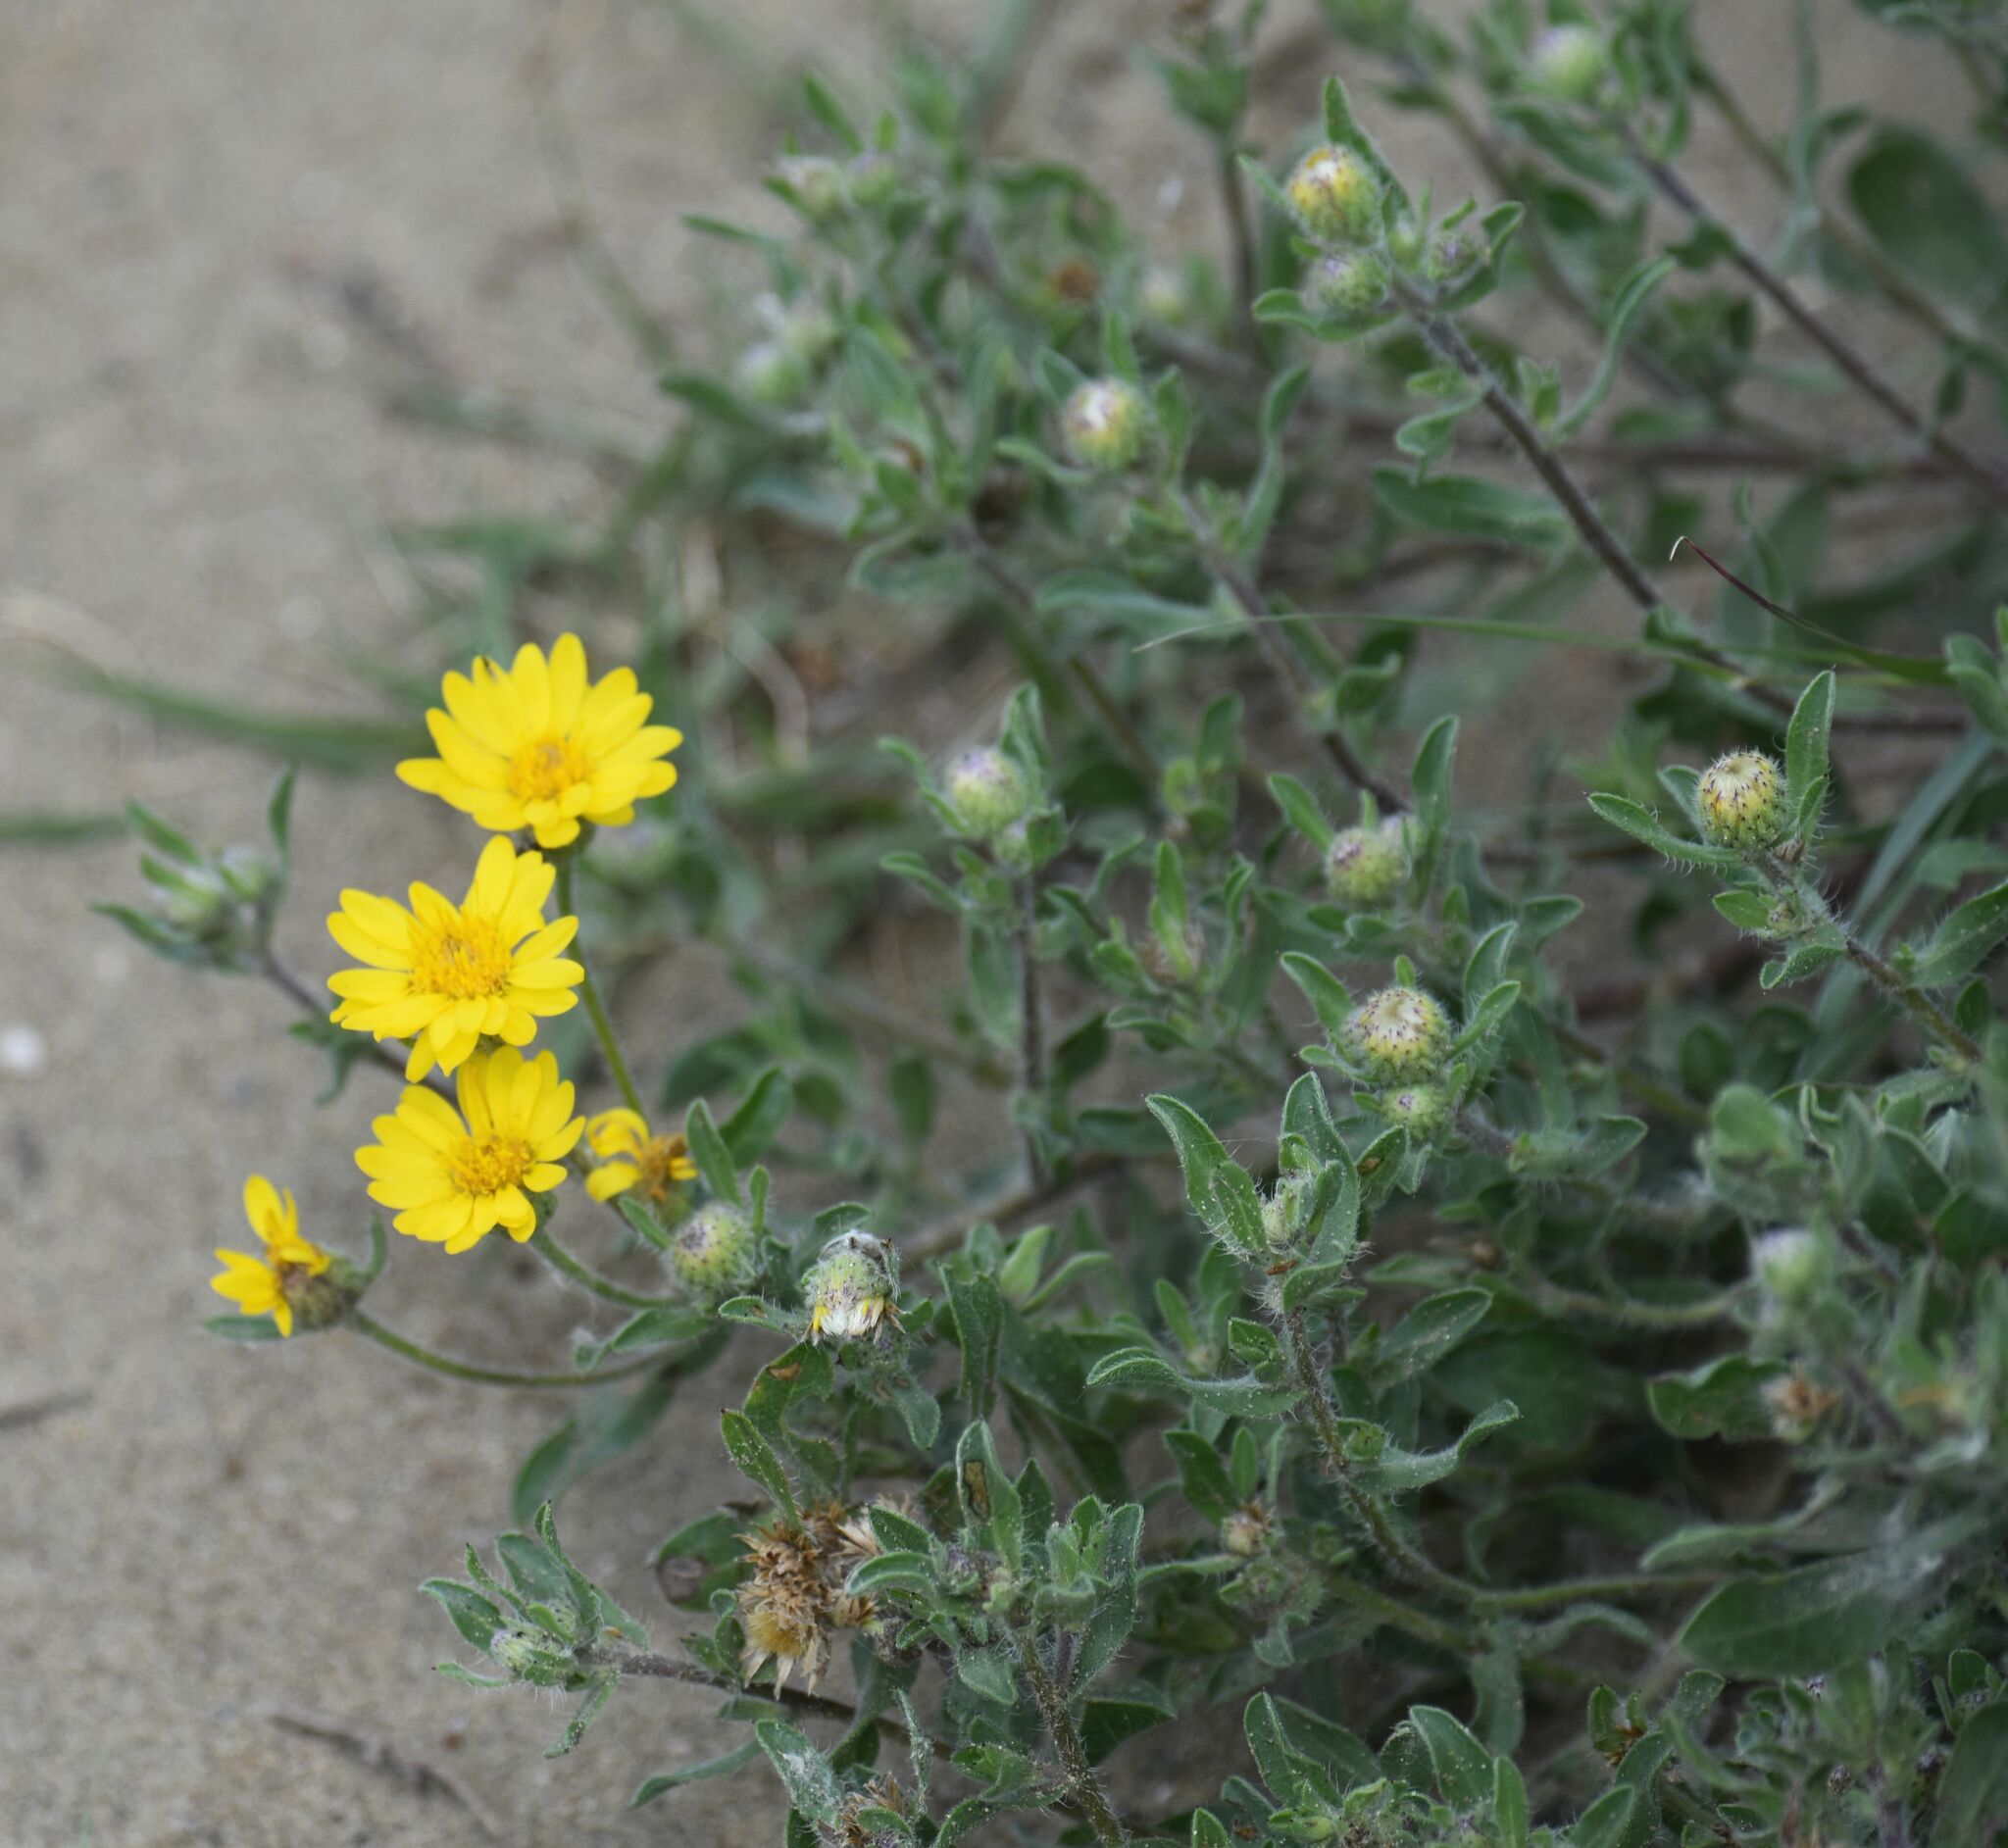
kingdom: Plantae
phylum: Tracheophyta
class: Magnoliopsida
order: Asterales
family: Asteraceae
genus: Heterotheca
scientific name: Heterotheca villosa
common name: Hairy false goldenaster
